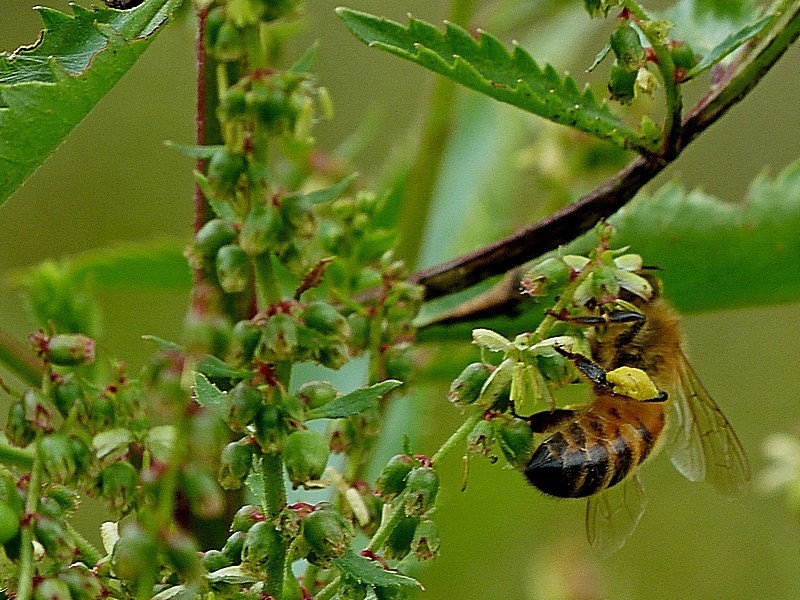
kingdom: Animalia
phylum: Arthropoda
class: Insecta
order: Hymenoptera
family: Apidae
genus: Apis
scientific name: Apis mellifera
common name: Honey bee
